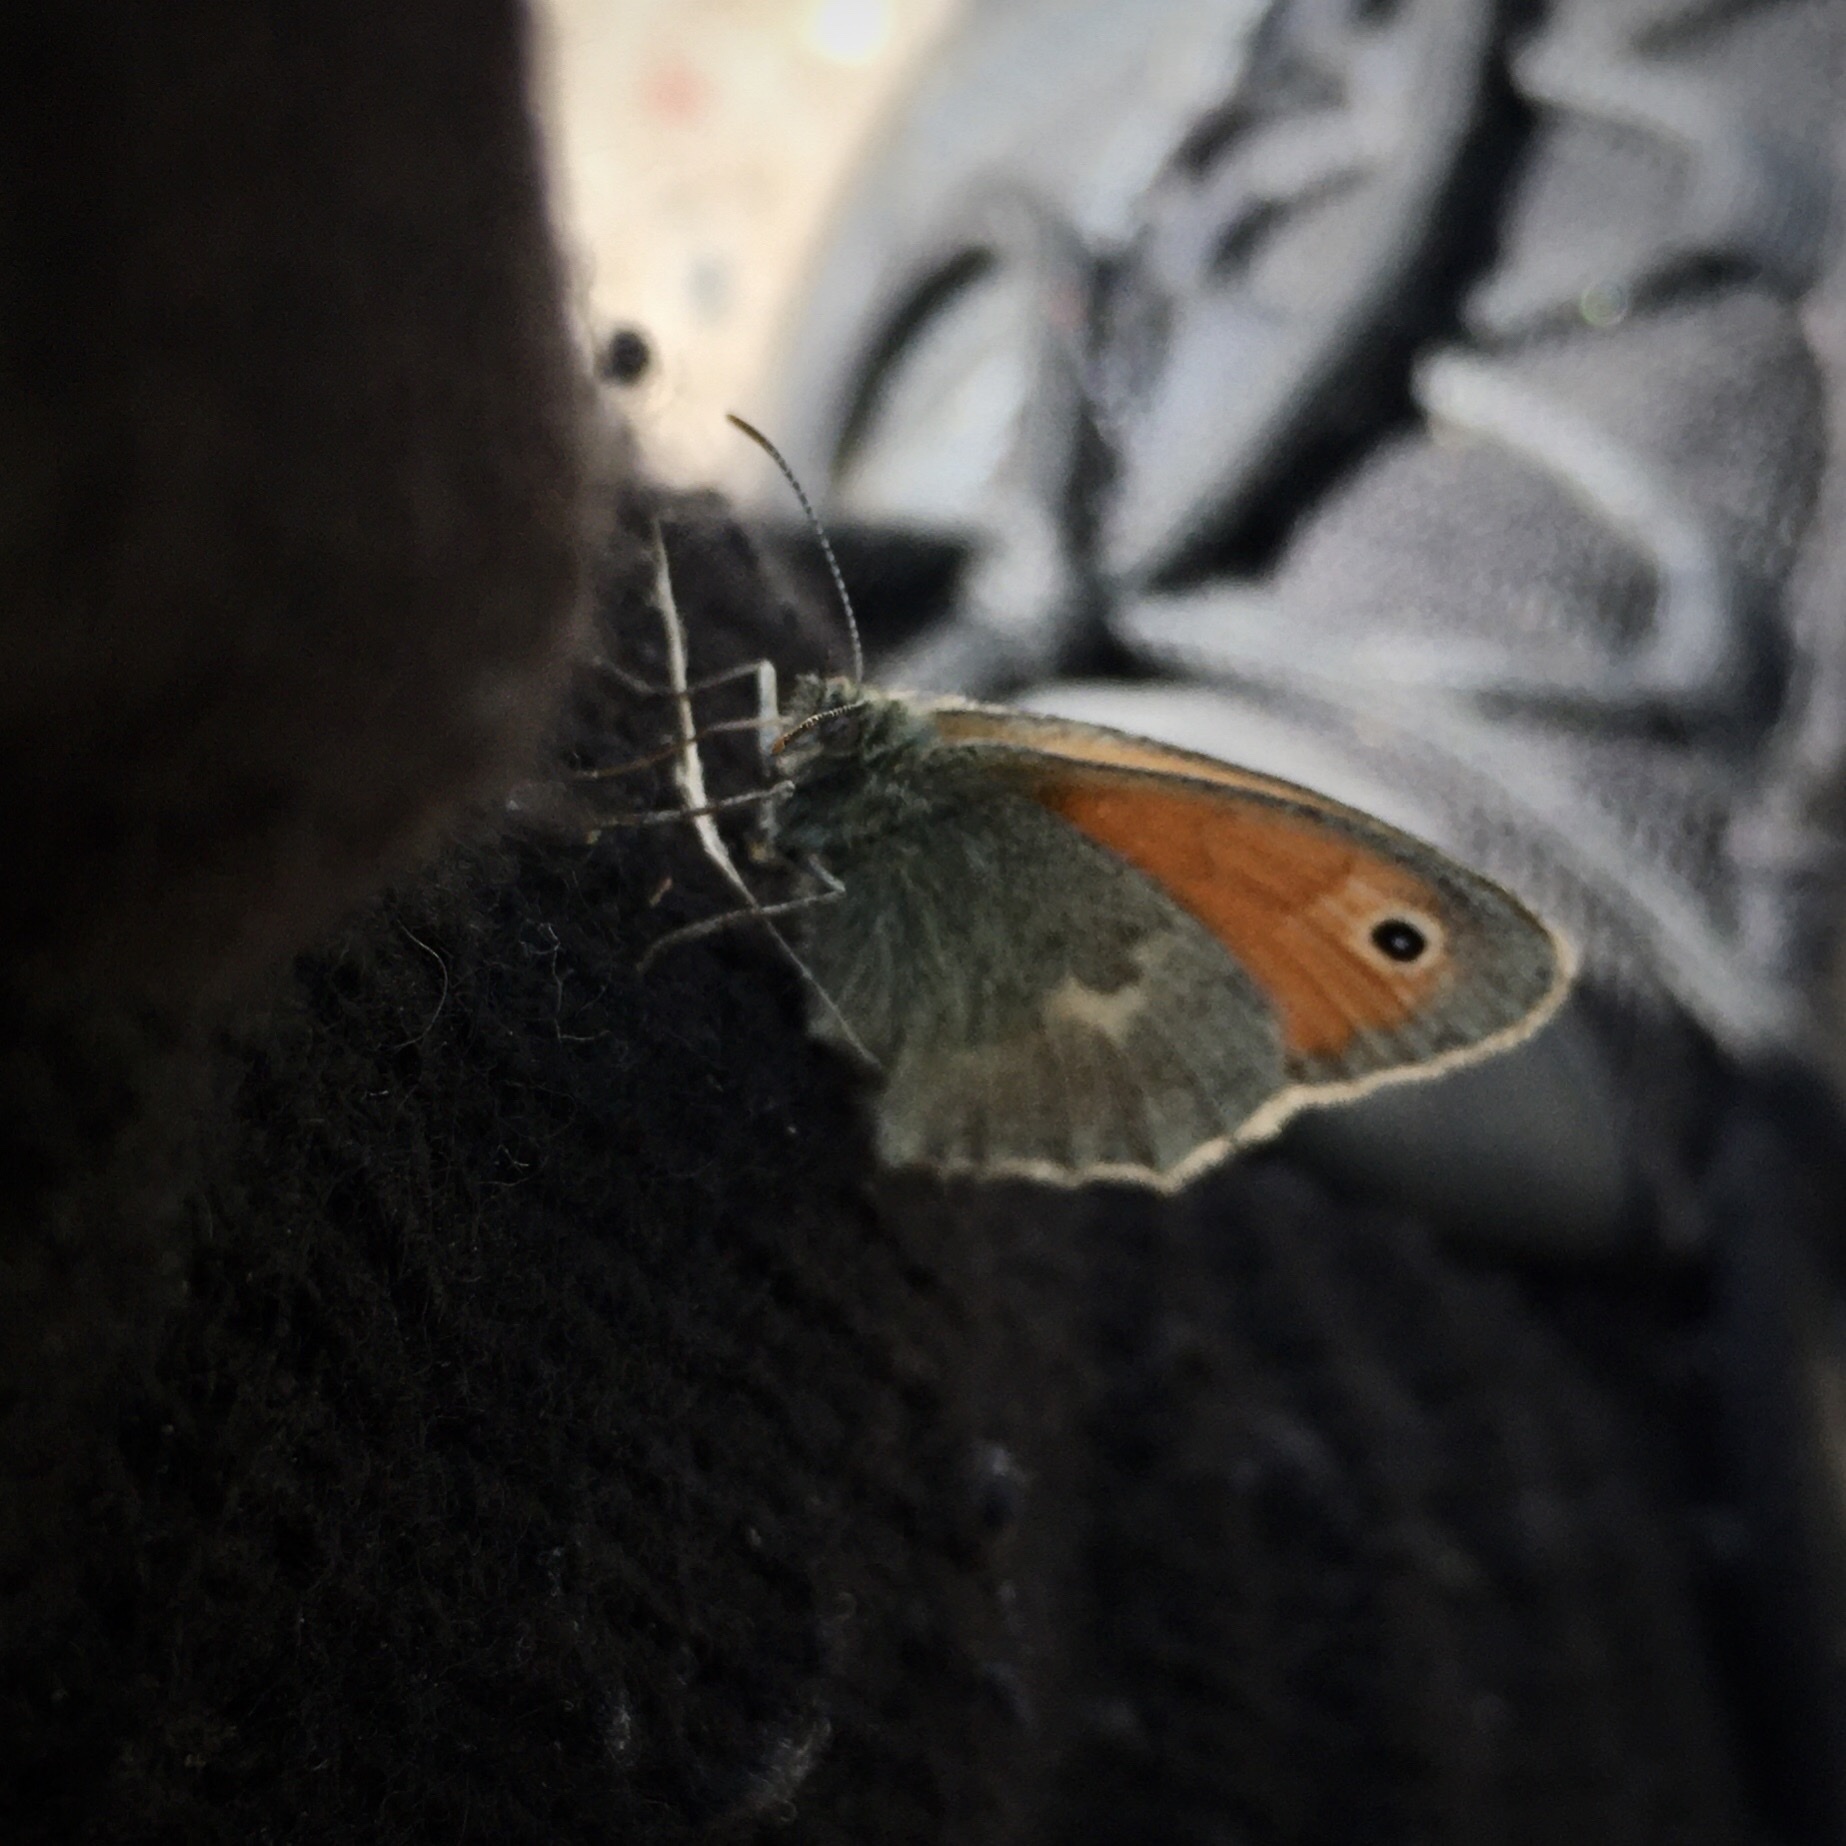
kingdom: Animalia
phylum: Arthropoda
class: Insecta
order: Lepidoptera
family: Nymphalidae
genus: Coenonympha
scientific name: Coenonympha pamphilus
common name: Small heath
